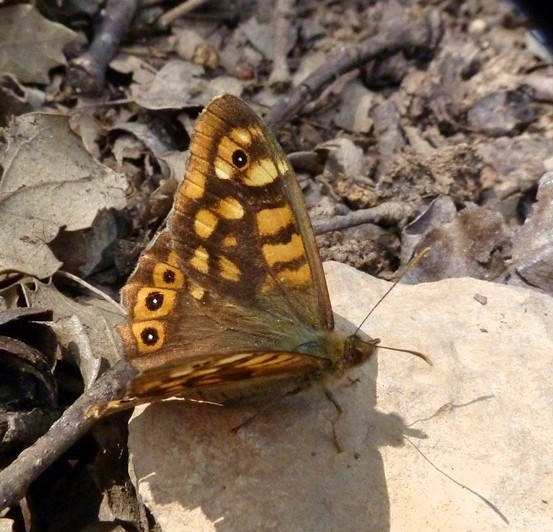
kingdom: Animalia
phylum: Arthropoda
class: Insecta
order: Lepidoptera
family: Nymphalidae
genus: Pararge
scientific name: Pararge aegeria
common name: Speckled wood
